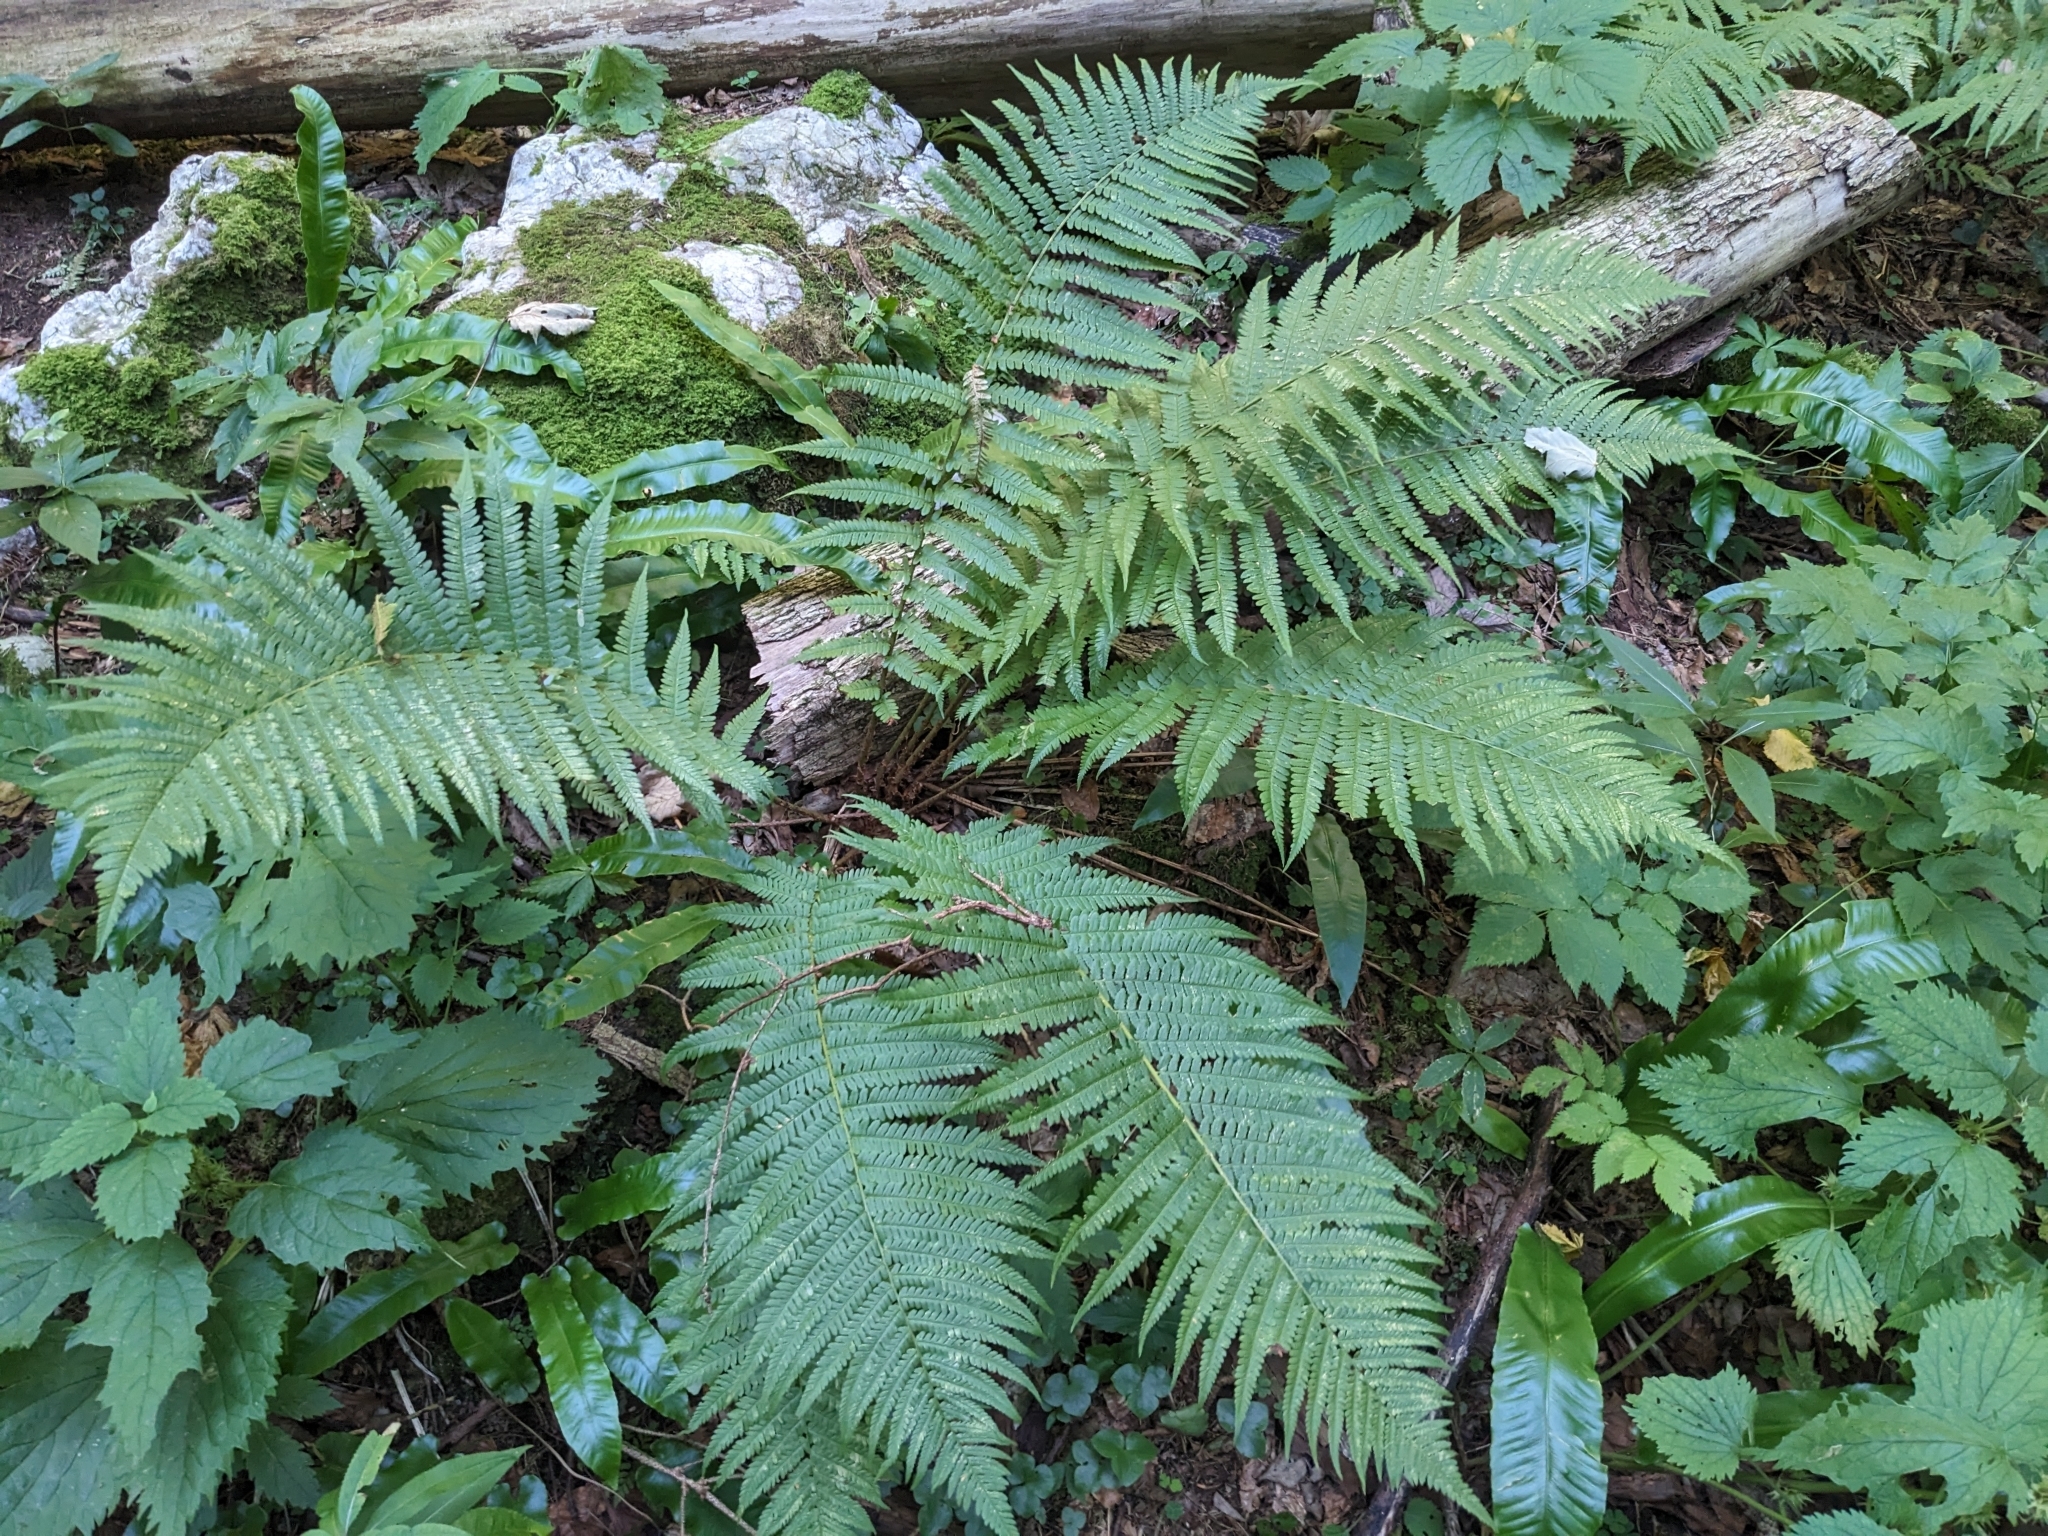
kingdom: Plantae
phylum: Tracheophyta
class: Polypodiopsida
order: Polypodiales
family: Dryopteridaceae
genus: Dryopteris
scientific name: Dryopteris filix-mas
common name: Male fern
